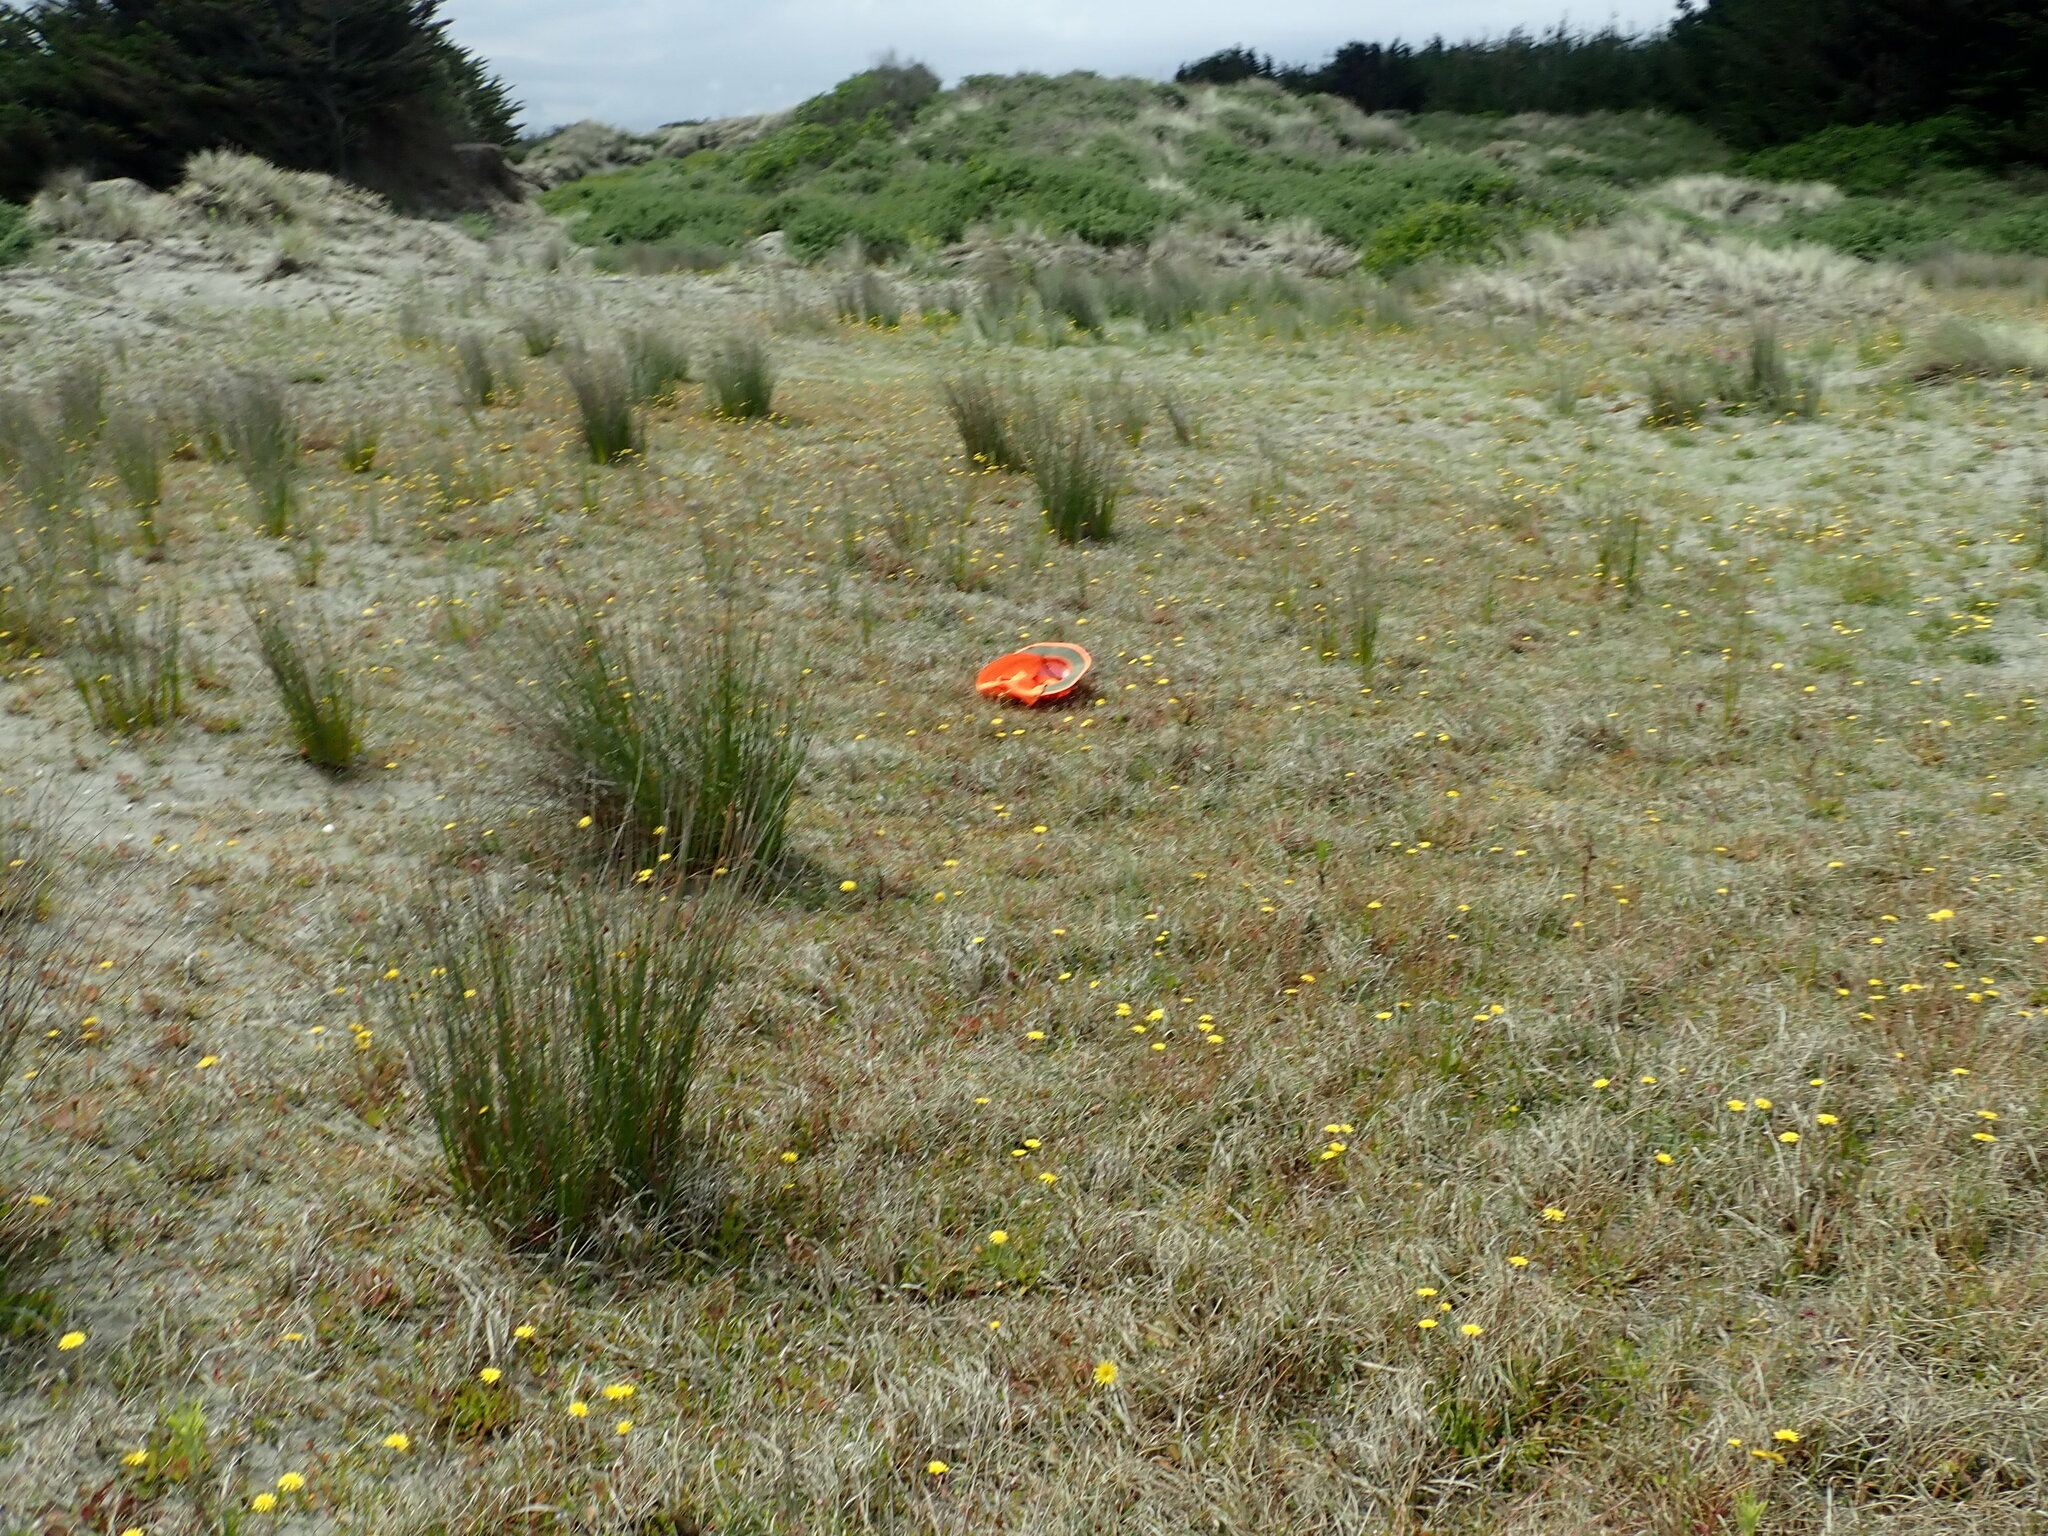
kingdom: Plantae
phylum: Tracheophyta
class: Magnoliopsida
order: Asterales
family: Goodeniaceae
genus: Goodenia
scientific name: Goodenia heenanii
